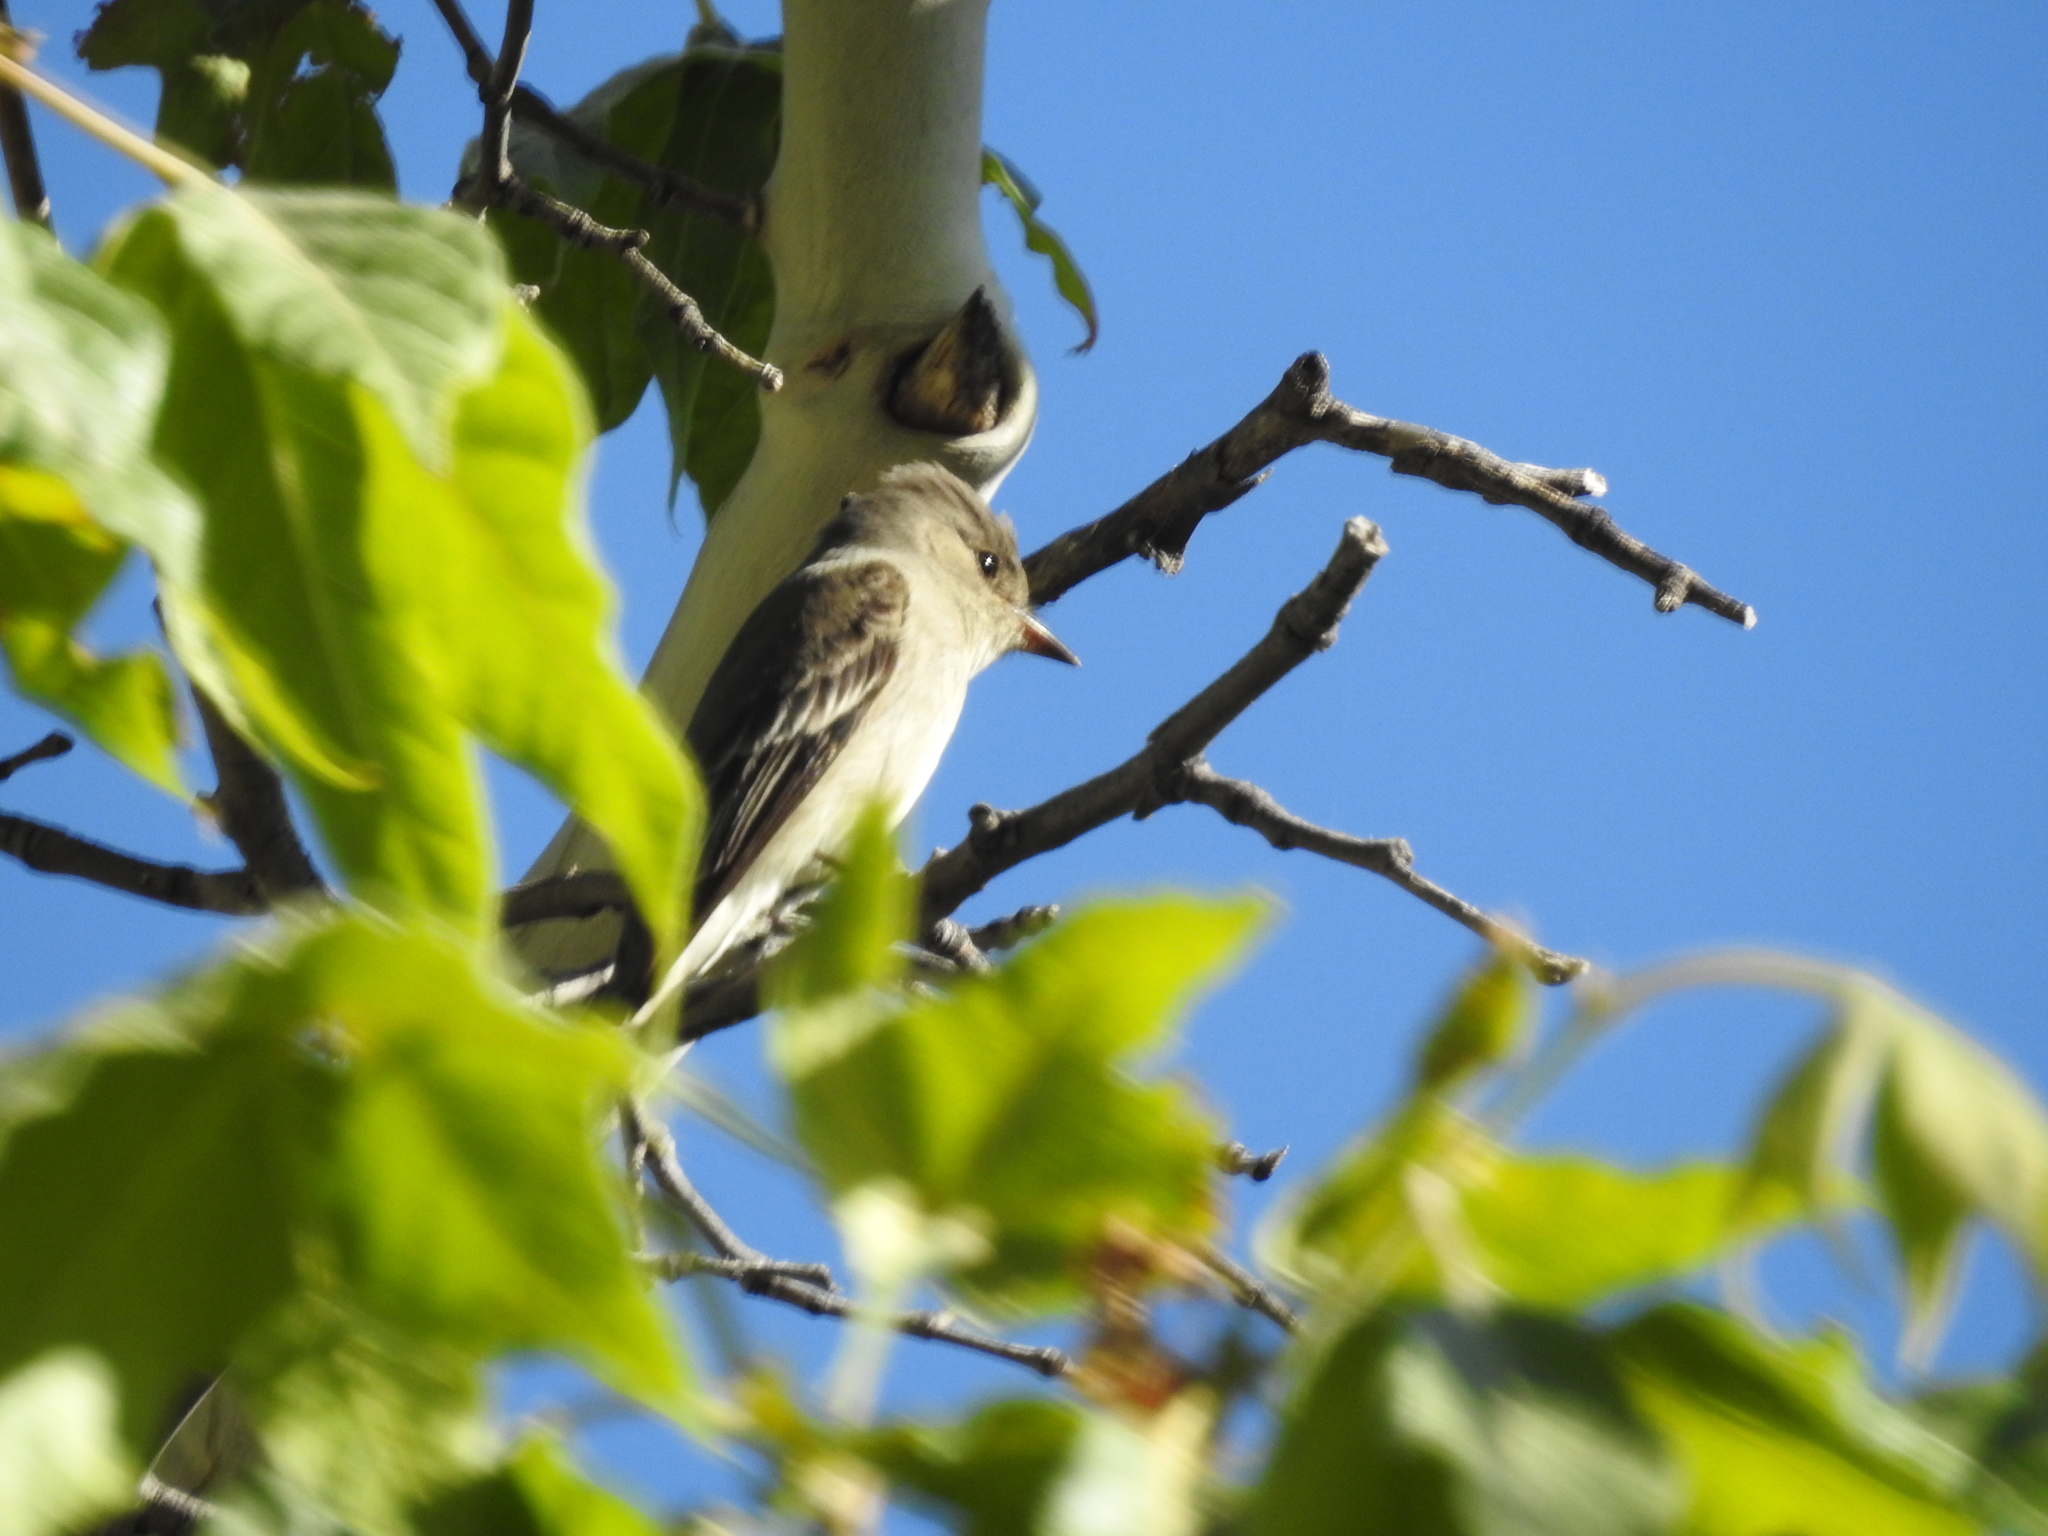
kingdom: Animalia
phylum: Chordata
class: Aves
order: Passeriformes
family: Tyrannidae
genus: Contopus
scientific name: Contopus sordidulus
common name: Western wood-pewee
